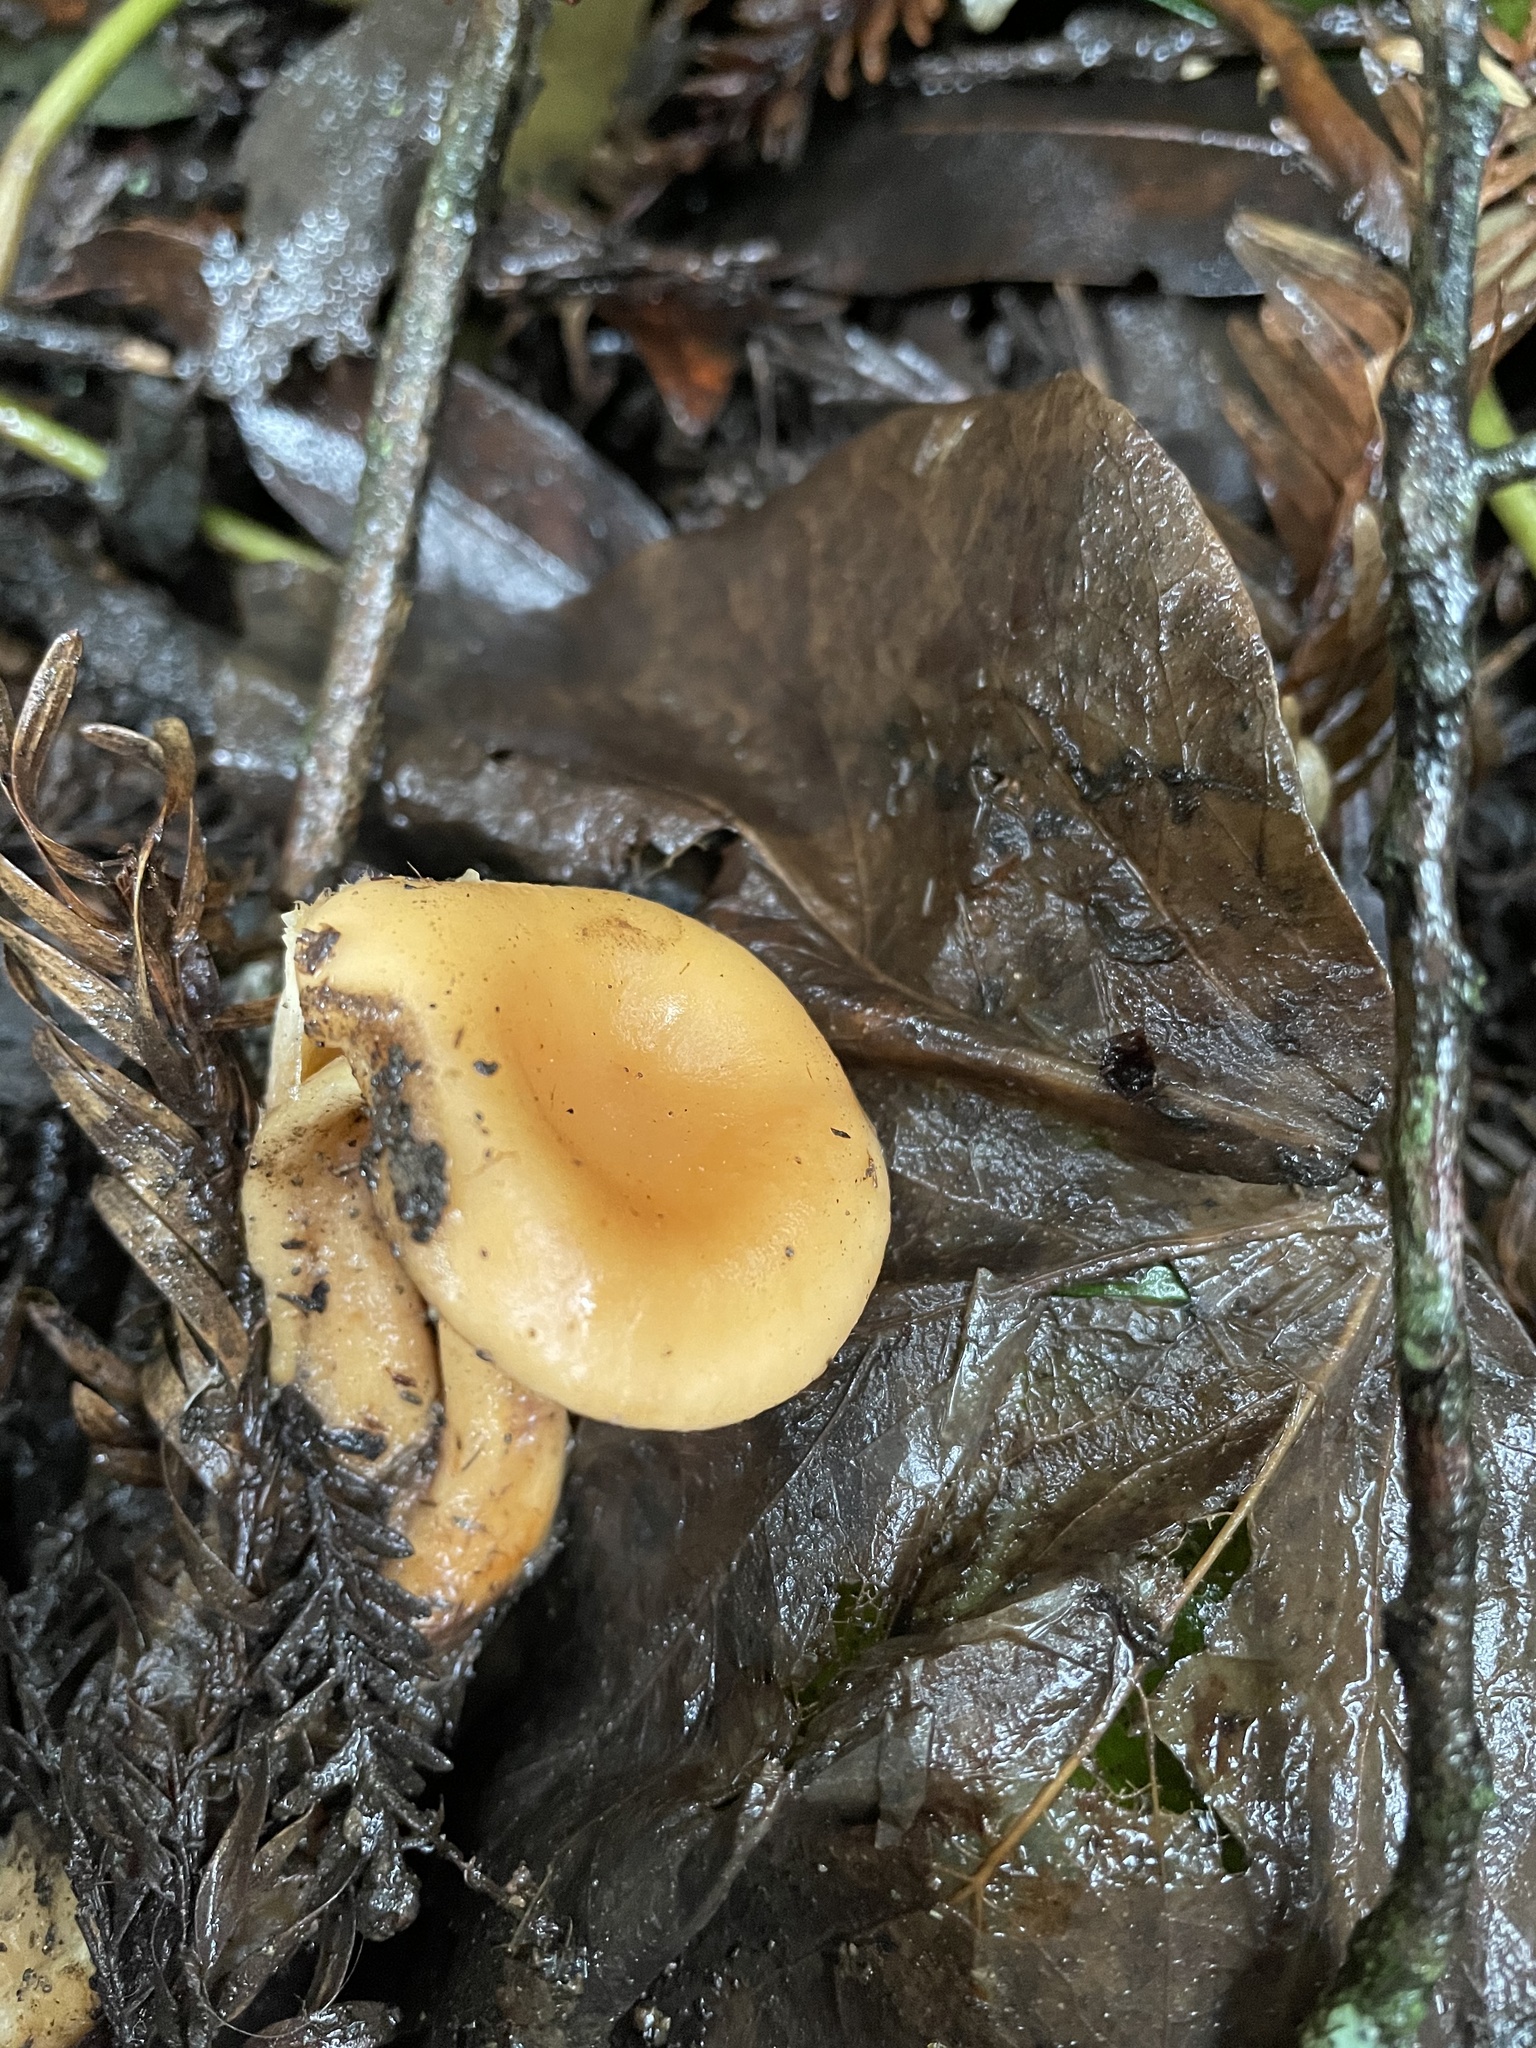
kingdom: Fungi
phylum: Basidiomycota
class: Agaricomycetes
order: Agaricales
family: Tricholomataceae
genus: Paralepista
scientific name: Paralepista flaccida
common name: Tawny funnel cap
